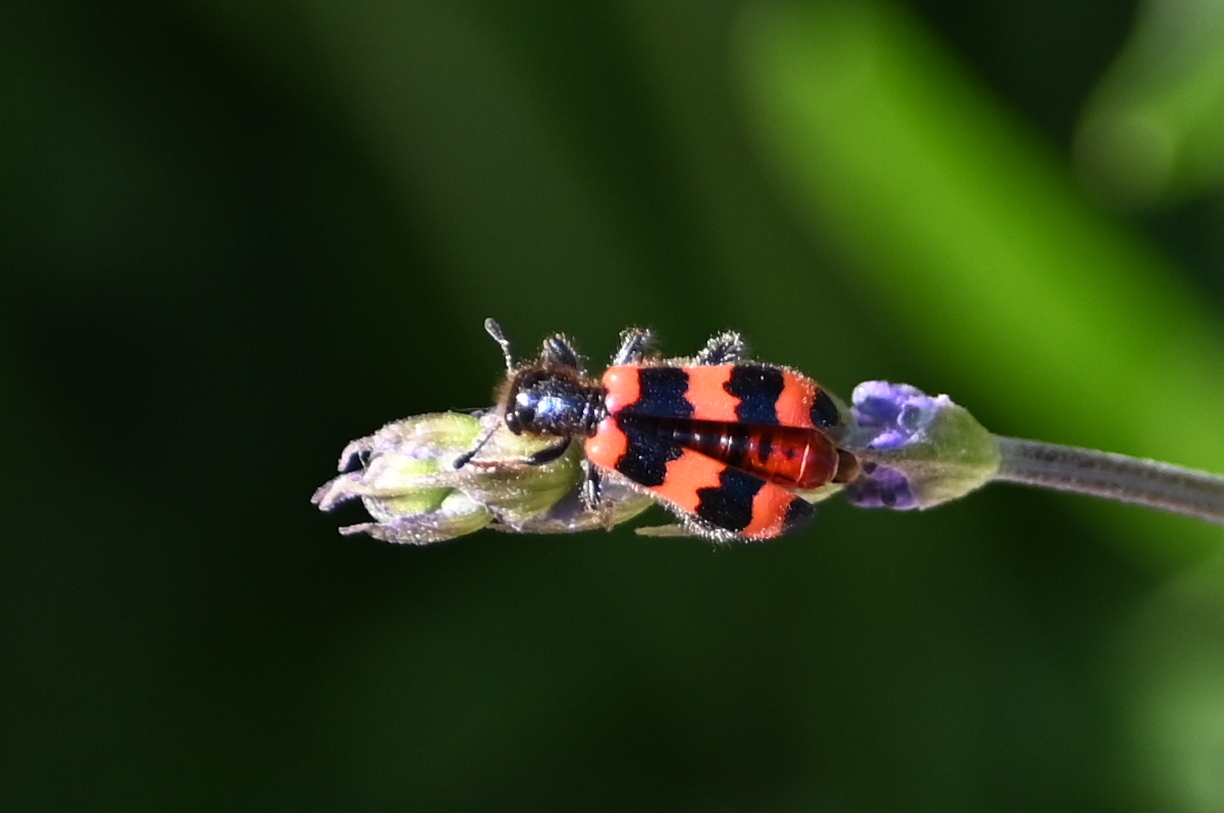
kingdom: Animalia
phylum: Arthropoda
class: Insecta
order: Coleoptera
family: Cleridae
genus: Trichodes
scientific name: Trichodes apiarius
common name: Bee-eating beetle
